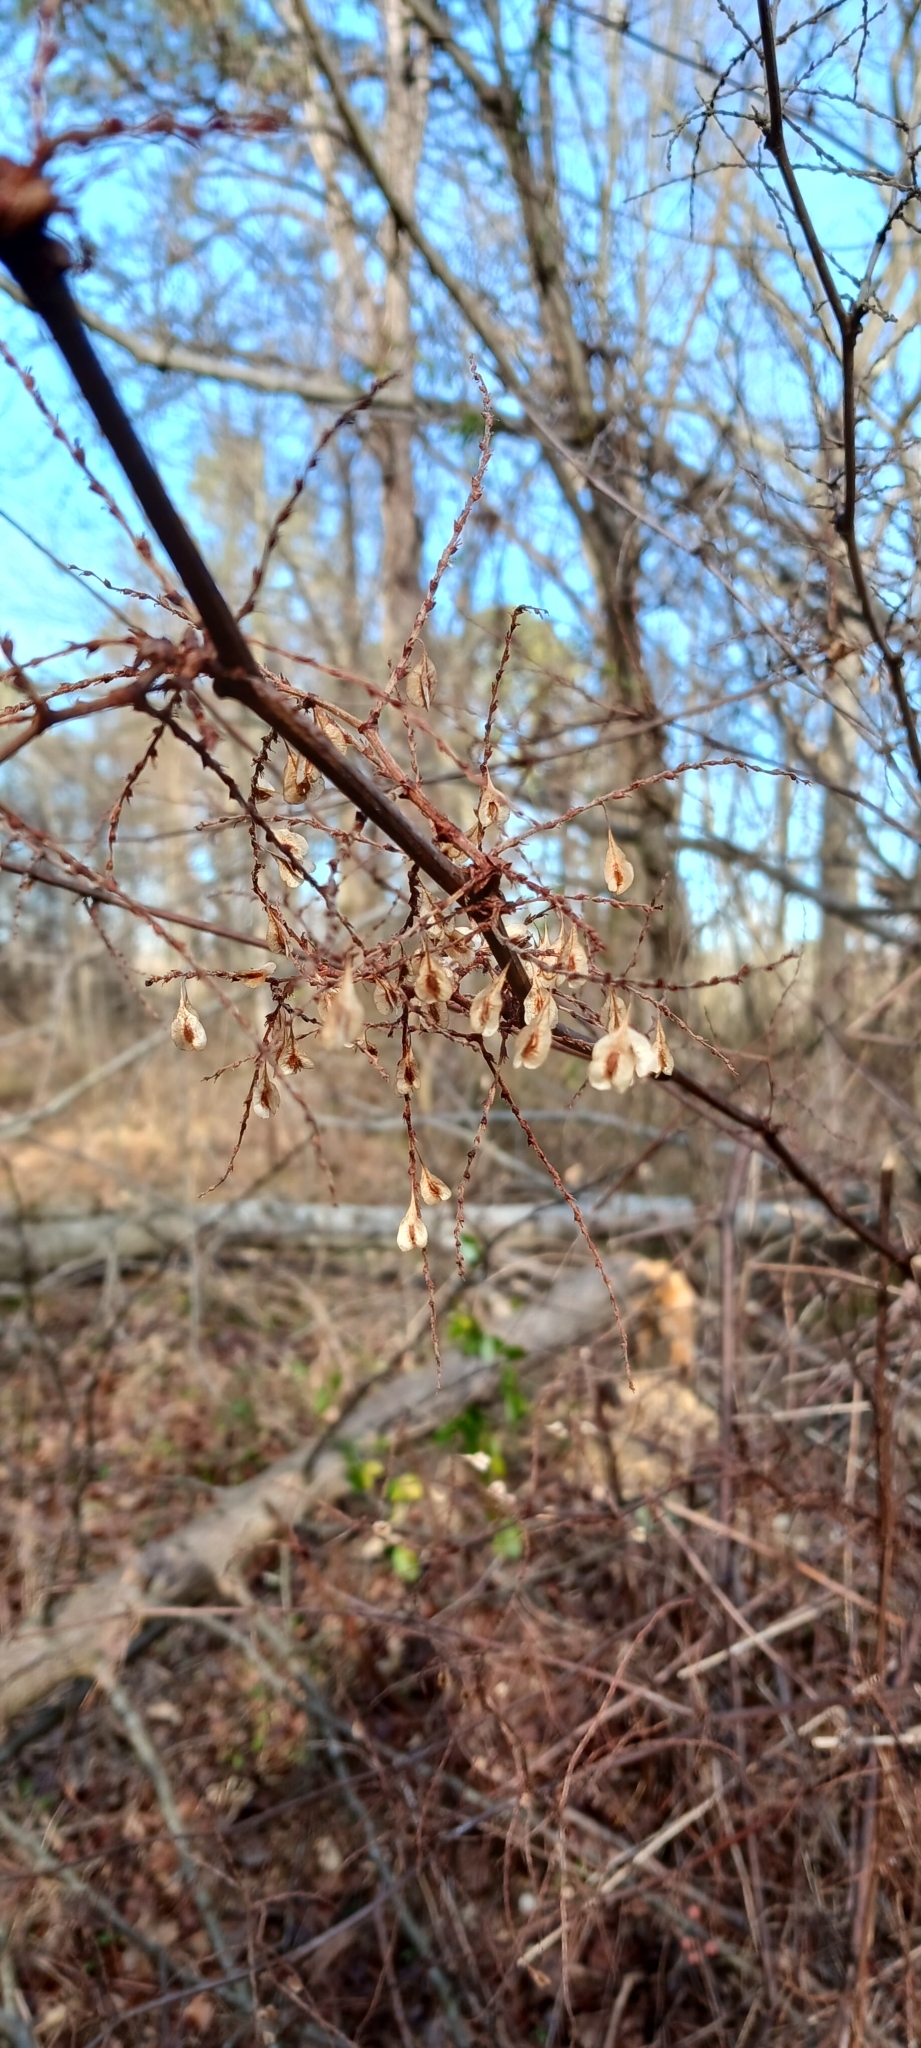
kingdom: Plantae
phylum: Tracheophyta
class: Magnoliopsida
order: Caryophyllales
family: Polygonaceae
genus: Reynoutria
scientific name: Reynoutria japonica
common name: Japanese knotweed
